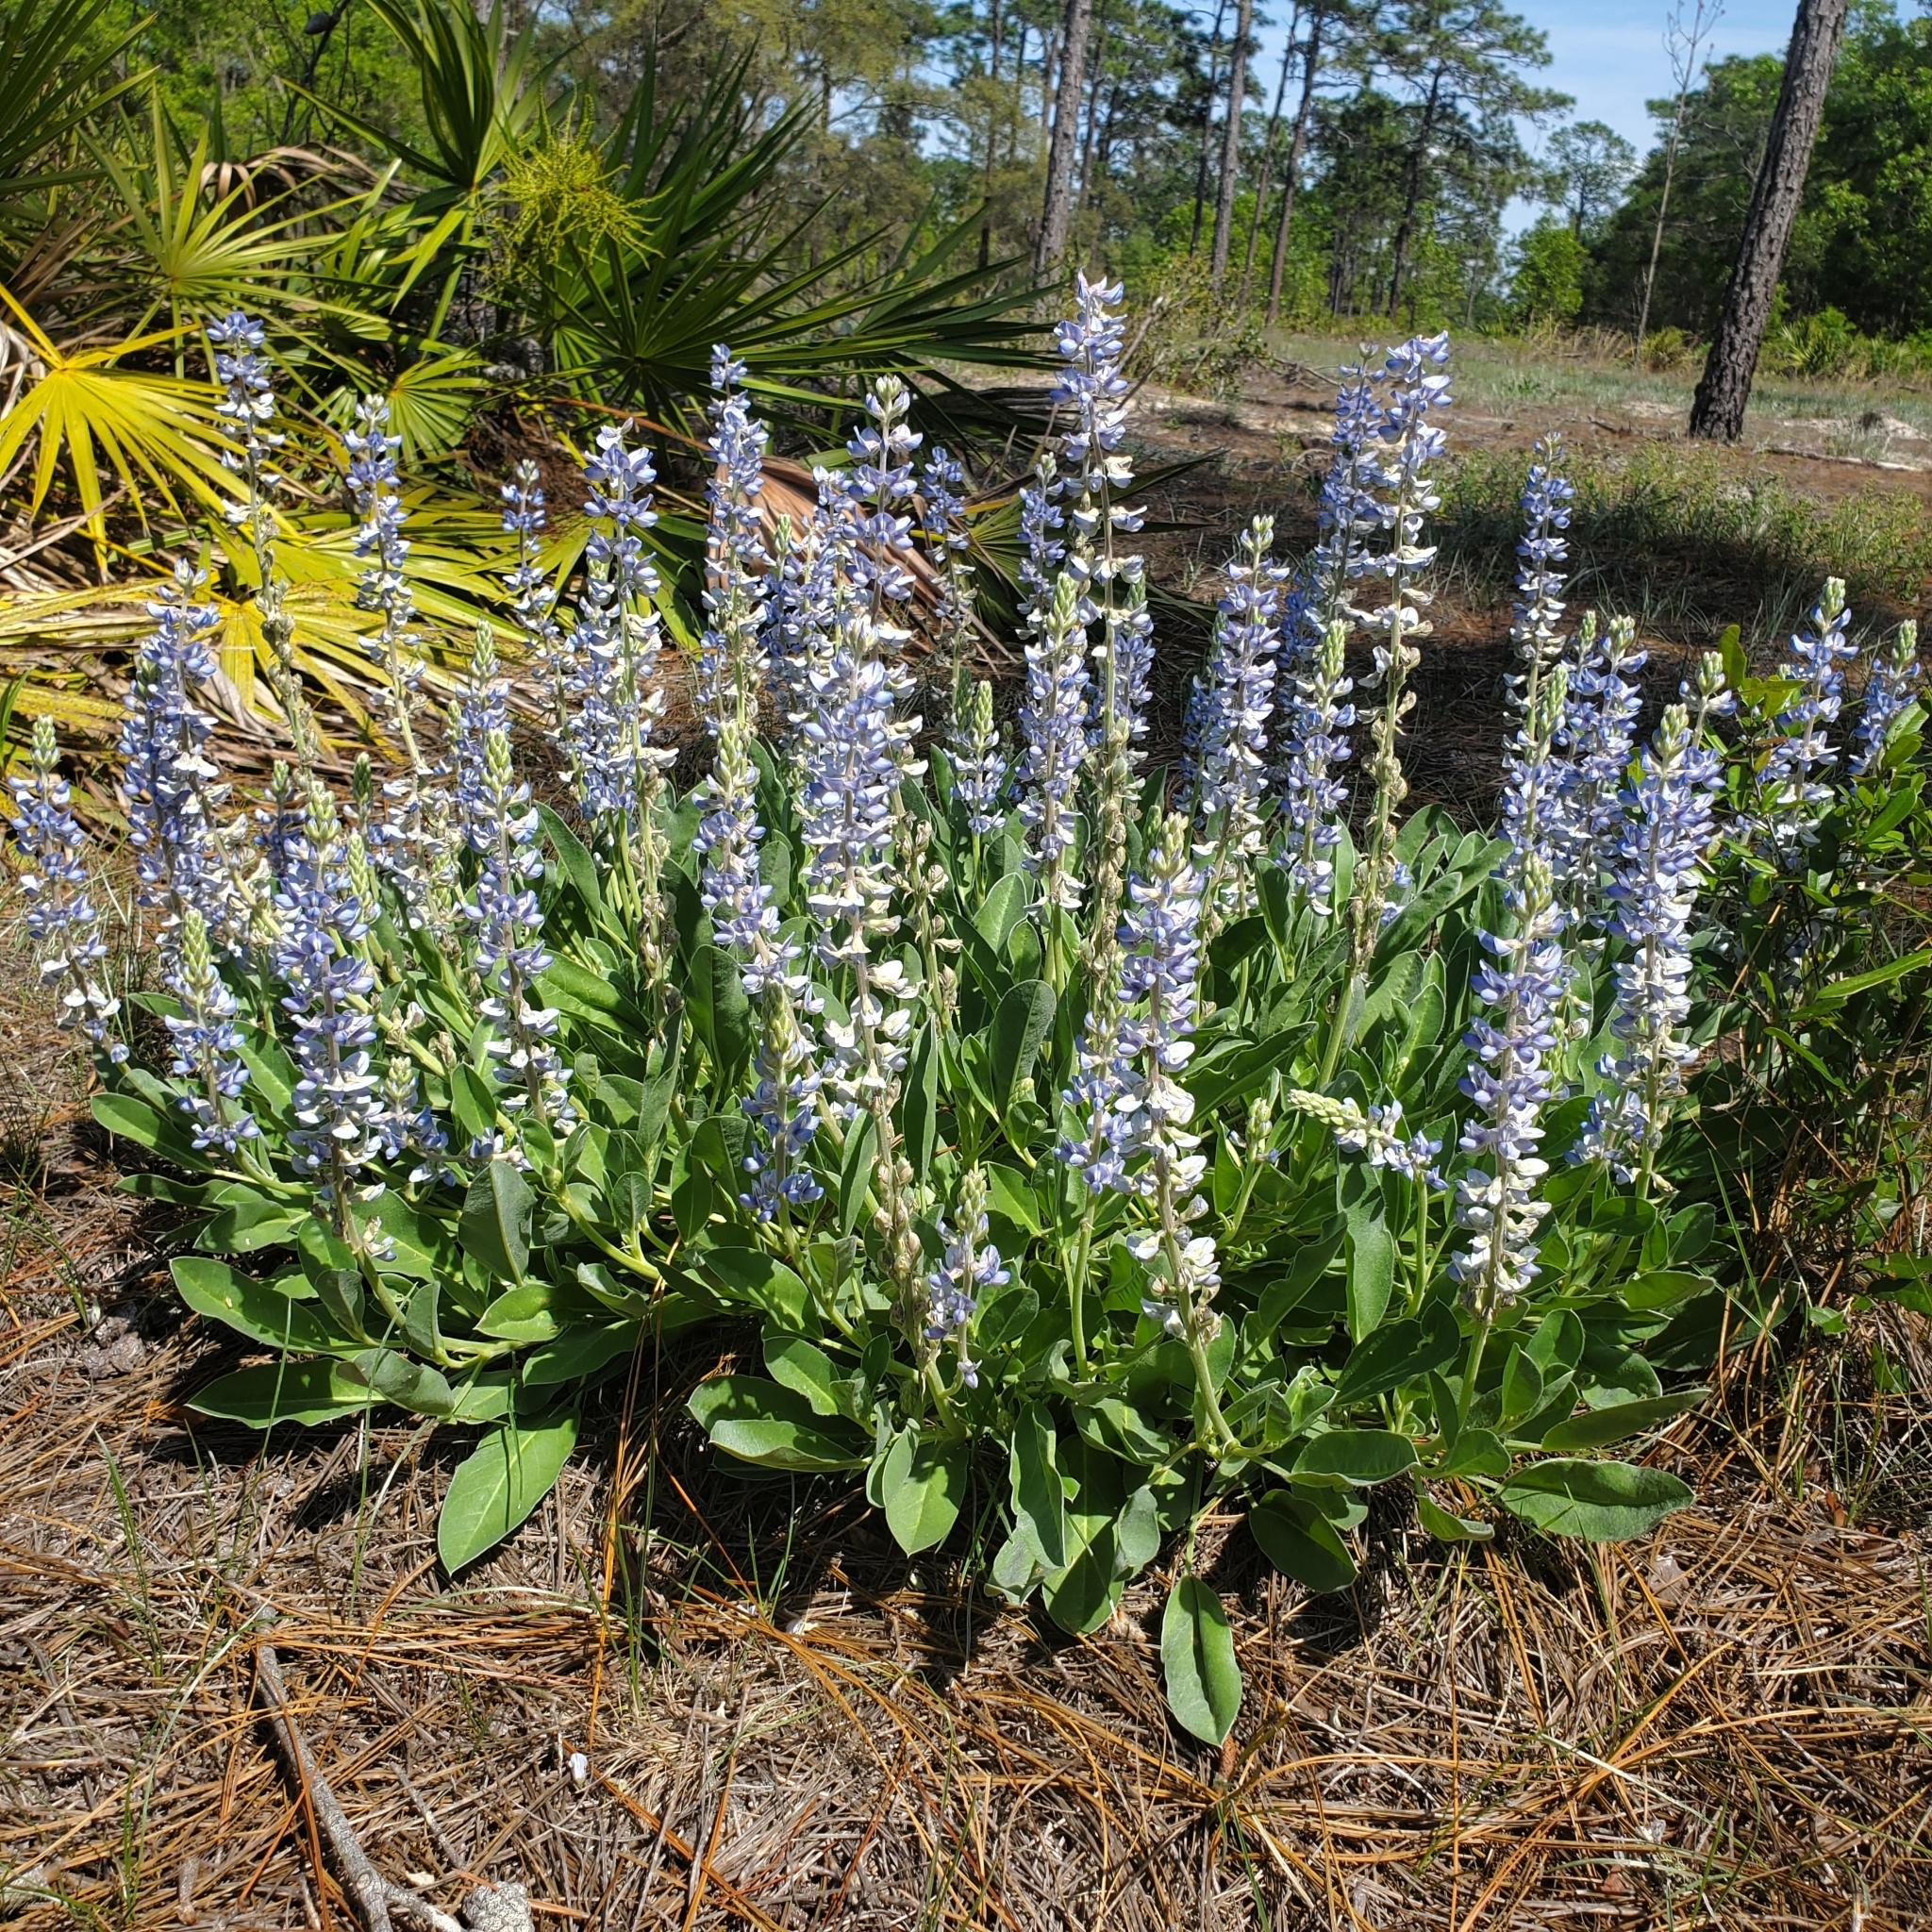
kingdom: Plantae
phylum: Tracheophyta
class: Magnoliopsida
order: Fabales
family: Fabaceae
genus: Lupinus
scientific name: Lupinus
